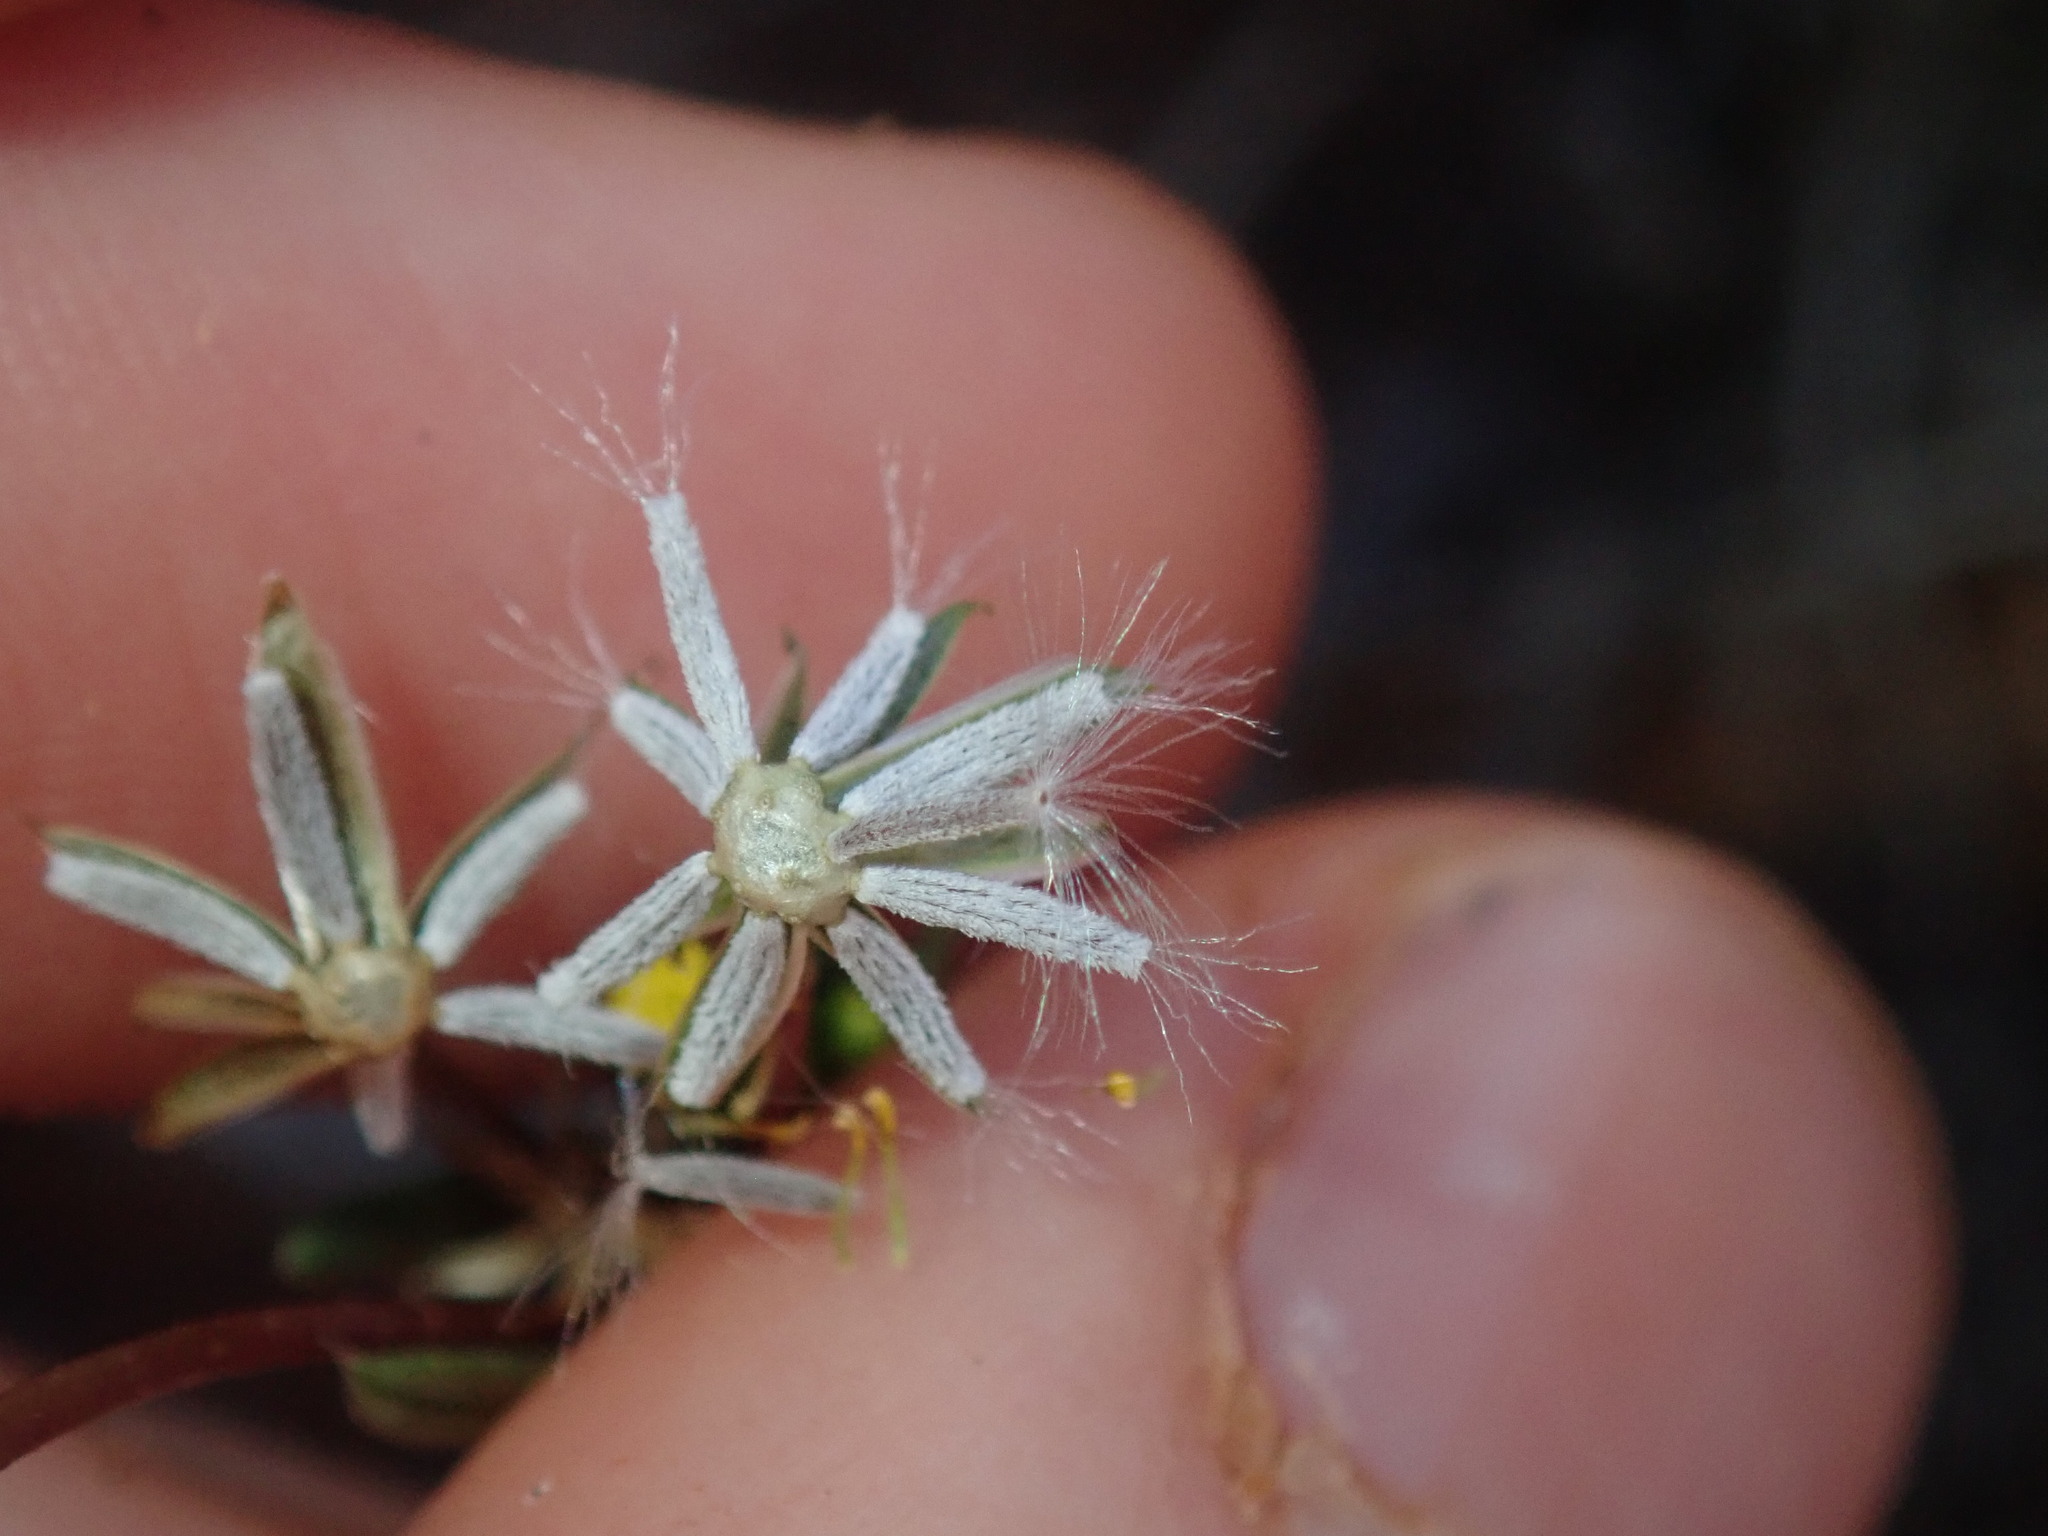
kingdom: Plantae
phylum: Tracheophyta
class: Magnoliopsida
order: Asterales
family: Asteraceae
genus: Senecio
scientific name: Senecio glossanthus
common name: Slender groundsel
